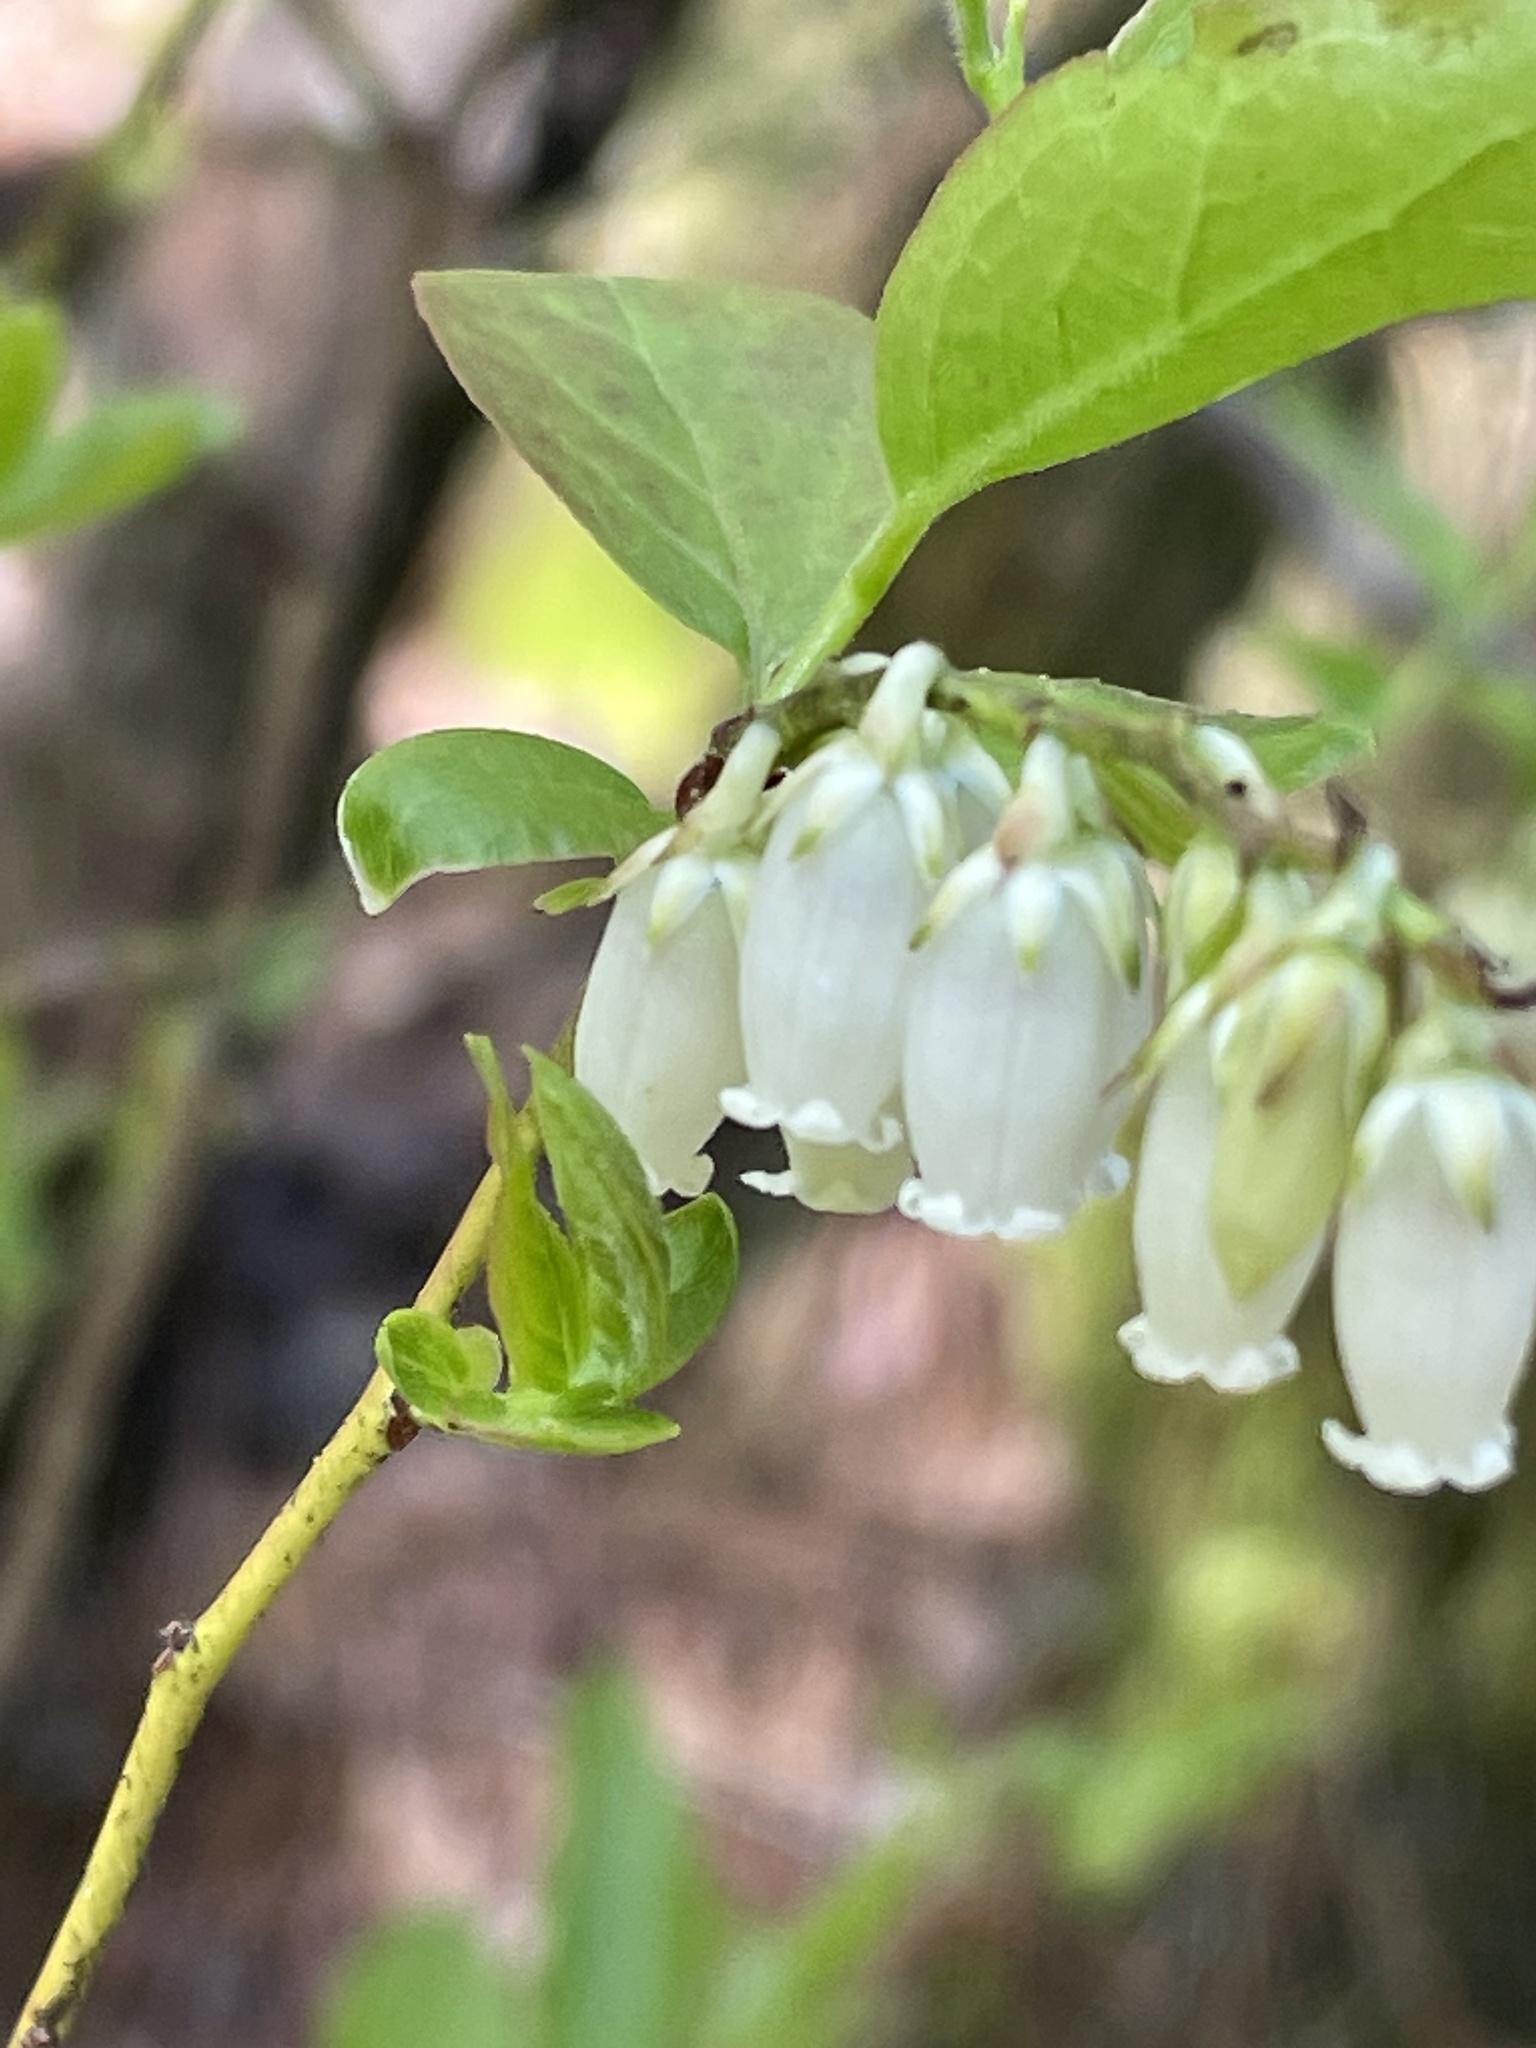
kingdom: Plantae
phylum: Tracheophyta
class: Magnoliopsida
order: Ericales
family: Ericaceae
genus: Eubotrys
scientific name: Eubotrys racemosa
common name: Fetterbush
